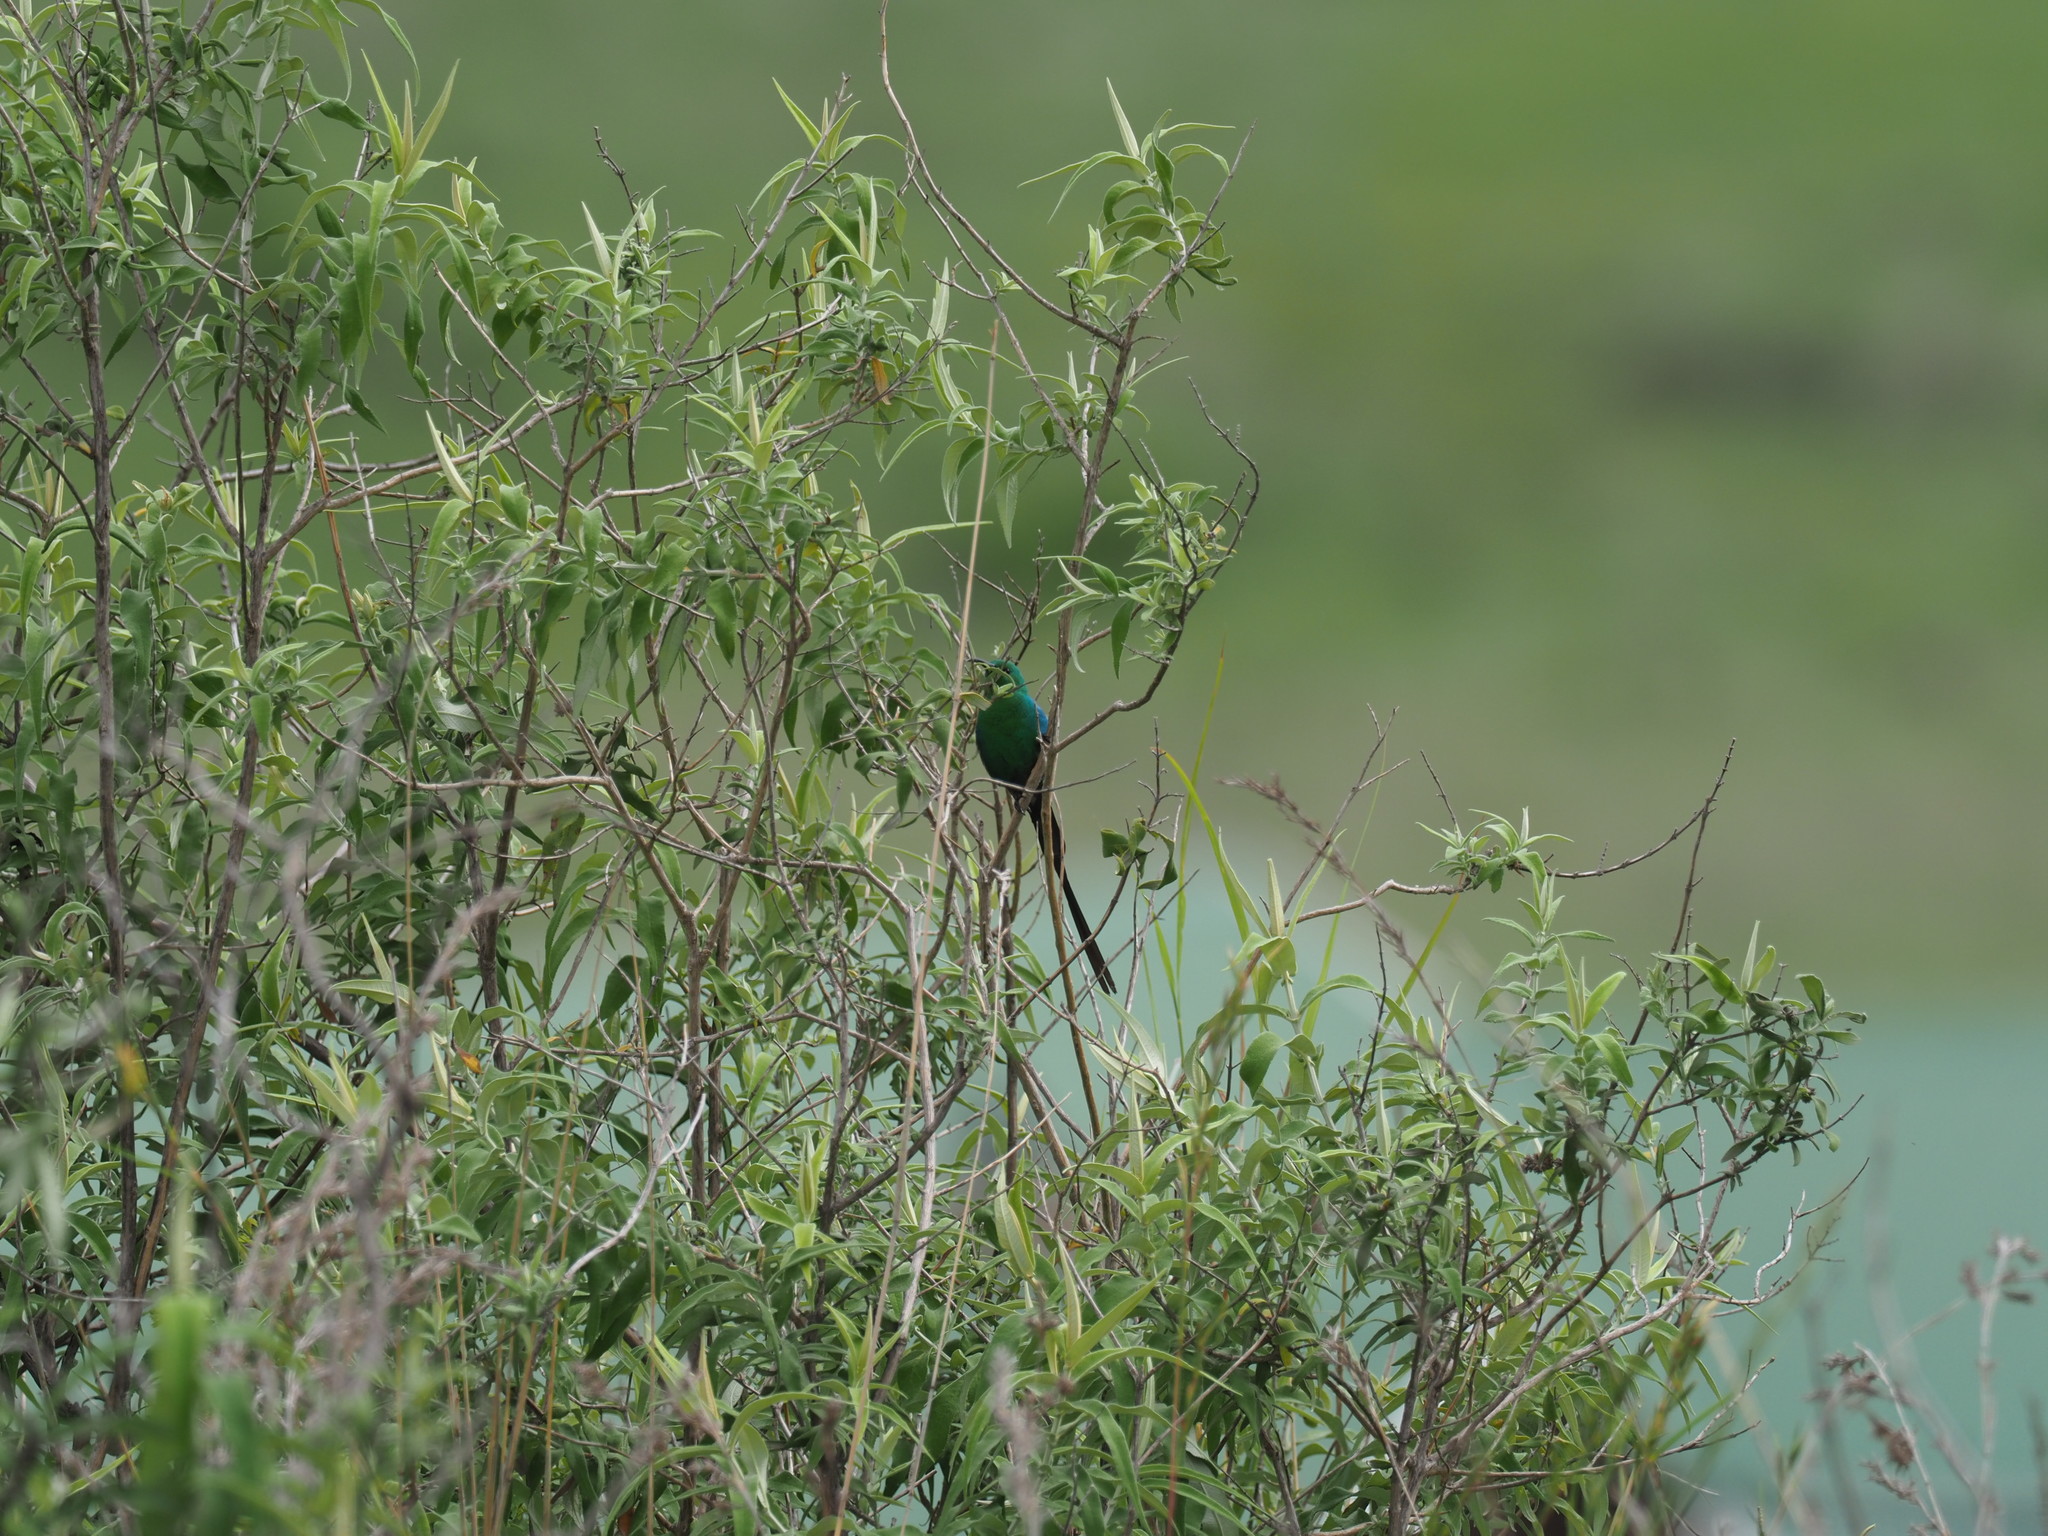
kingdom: Animalia
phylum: Chordata
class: Aves
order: Passeriformes
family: Nectariniidae
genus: Nectarinia
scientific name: Nectarinia famosa
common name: Malachite sunbird
